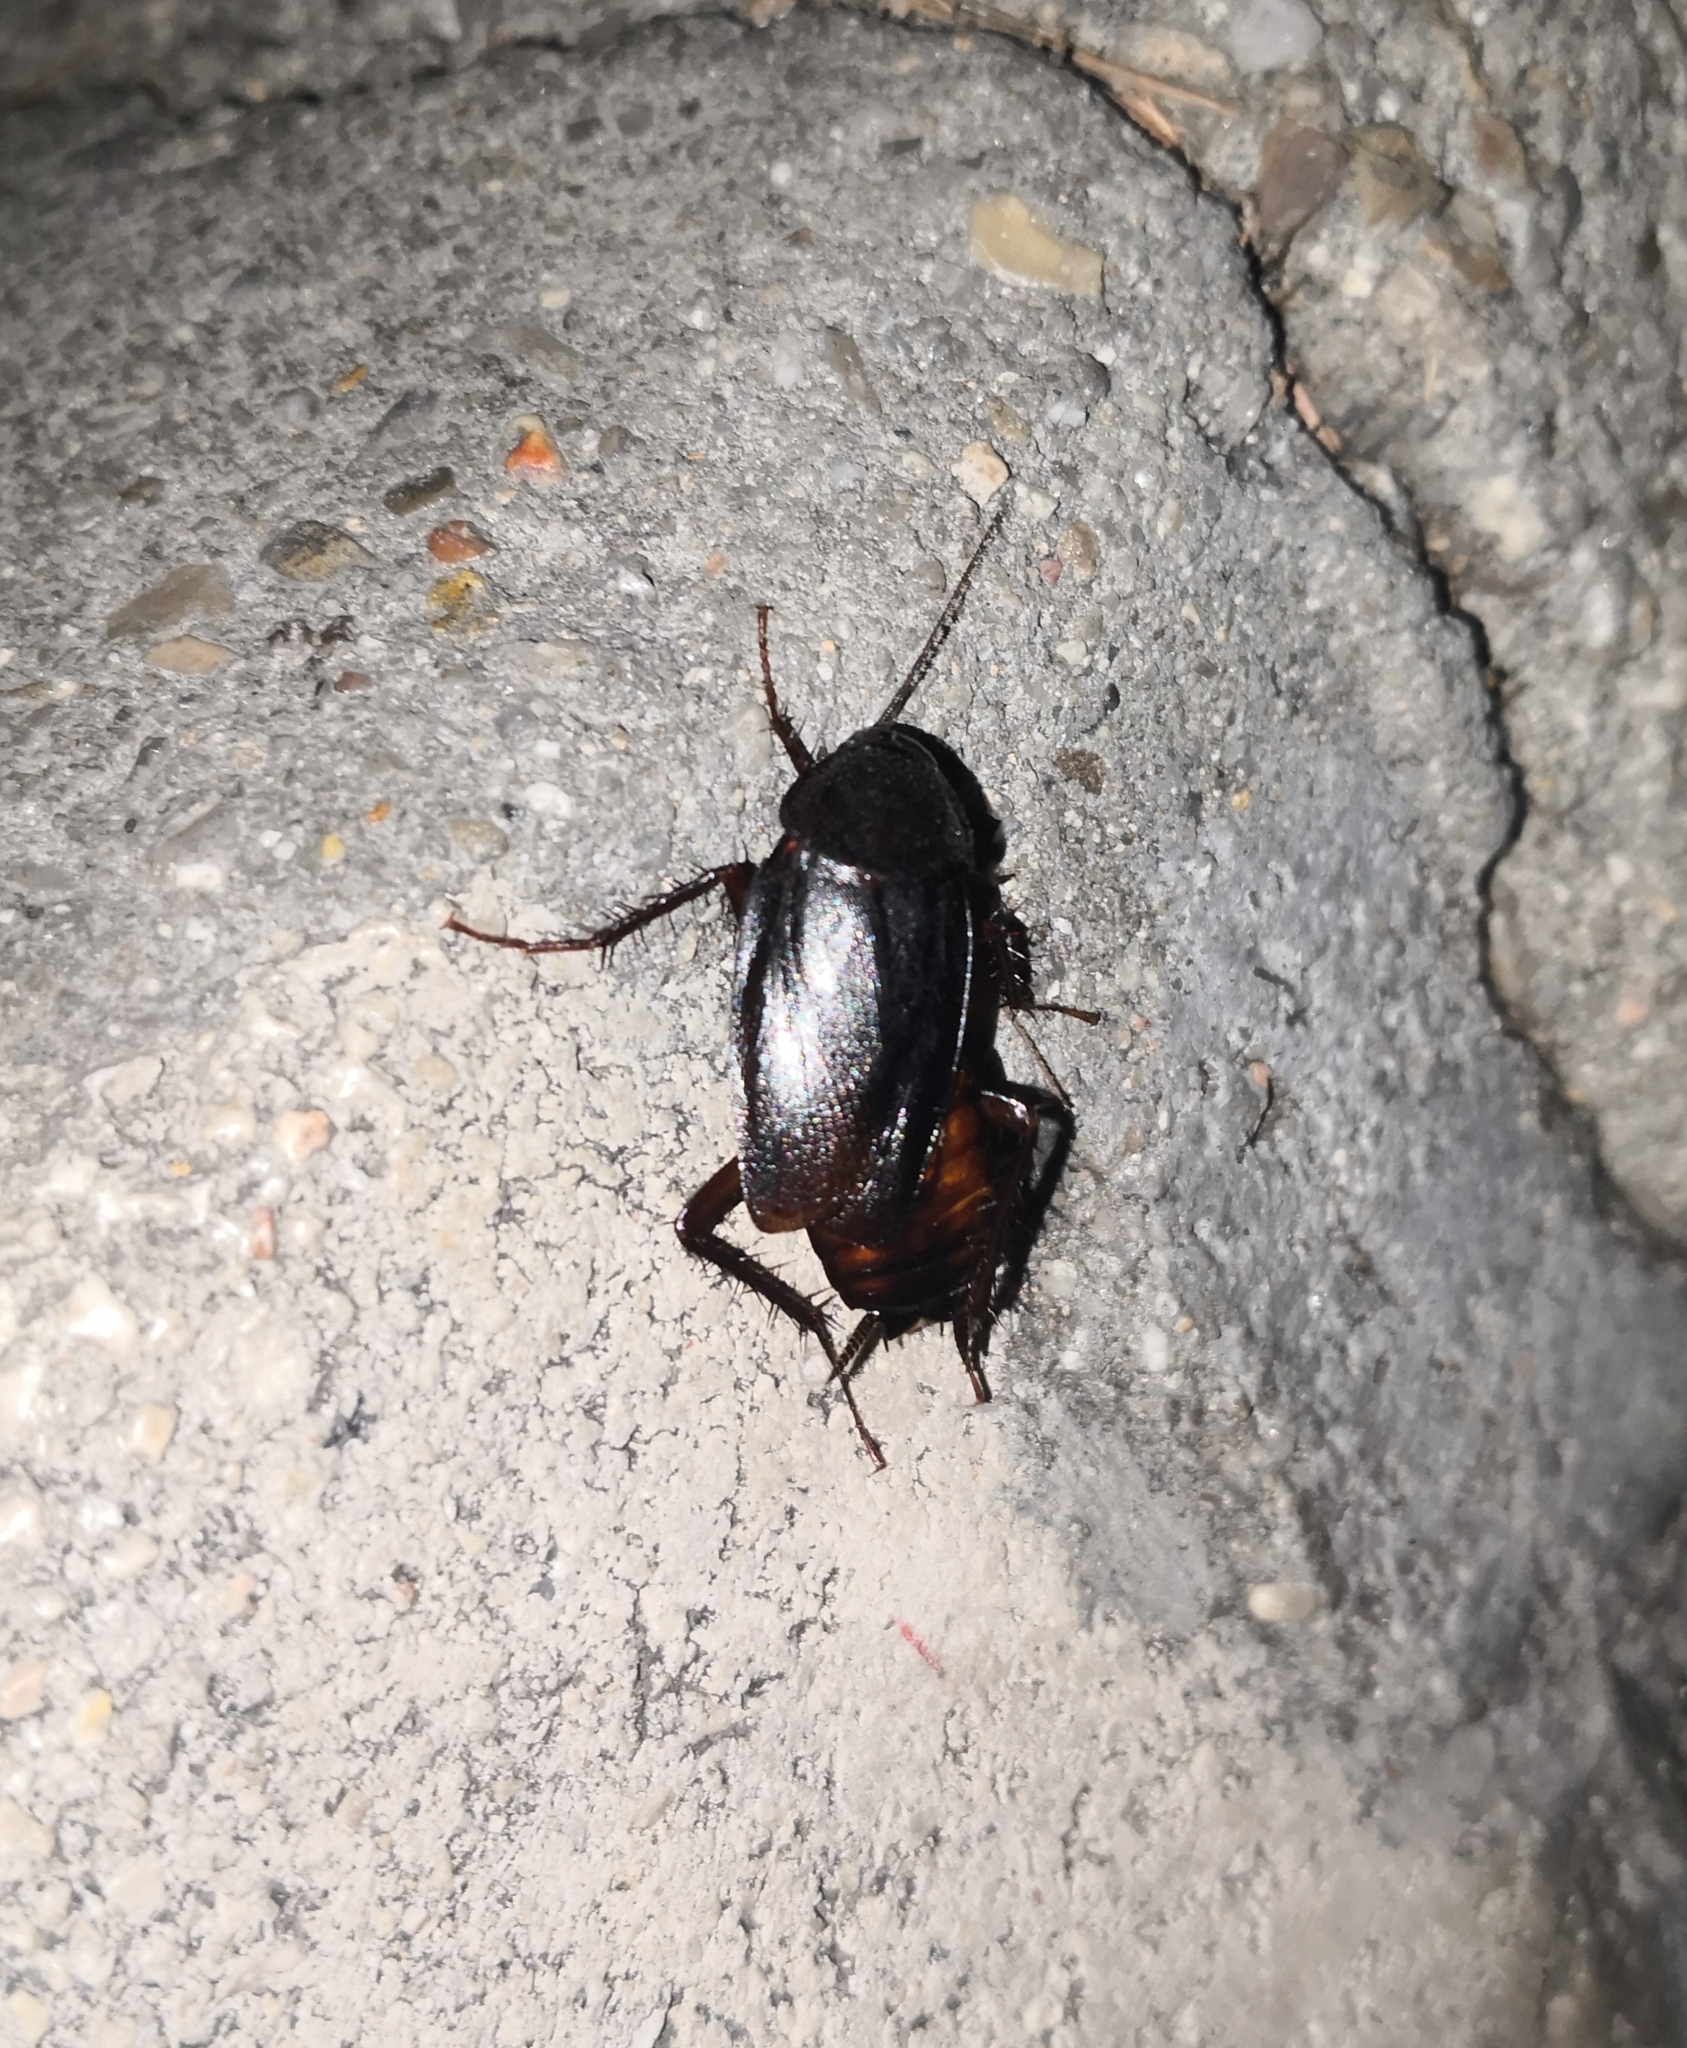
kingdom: Animalia
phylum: Arthropoda
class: Insecta
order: Blattodea
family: Blattidae
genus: Blatta
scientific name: Blatta orientalis
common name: Oriental cockroach
